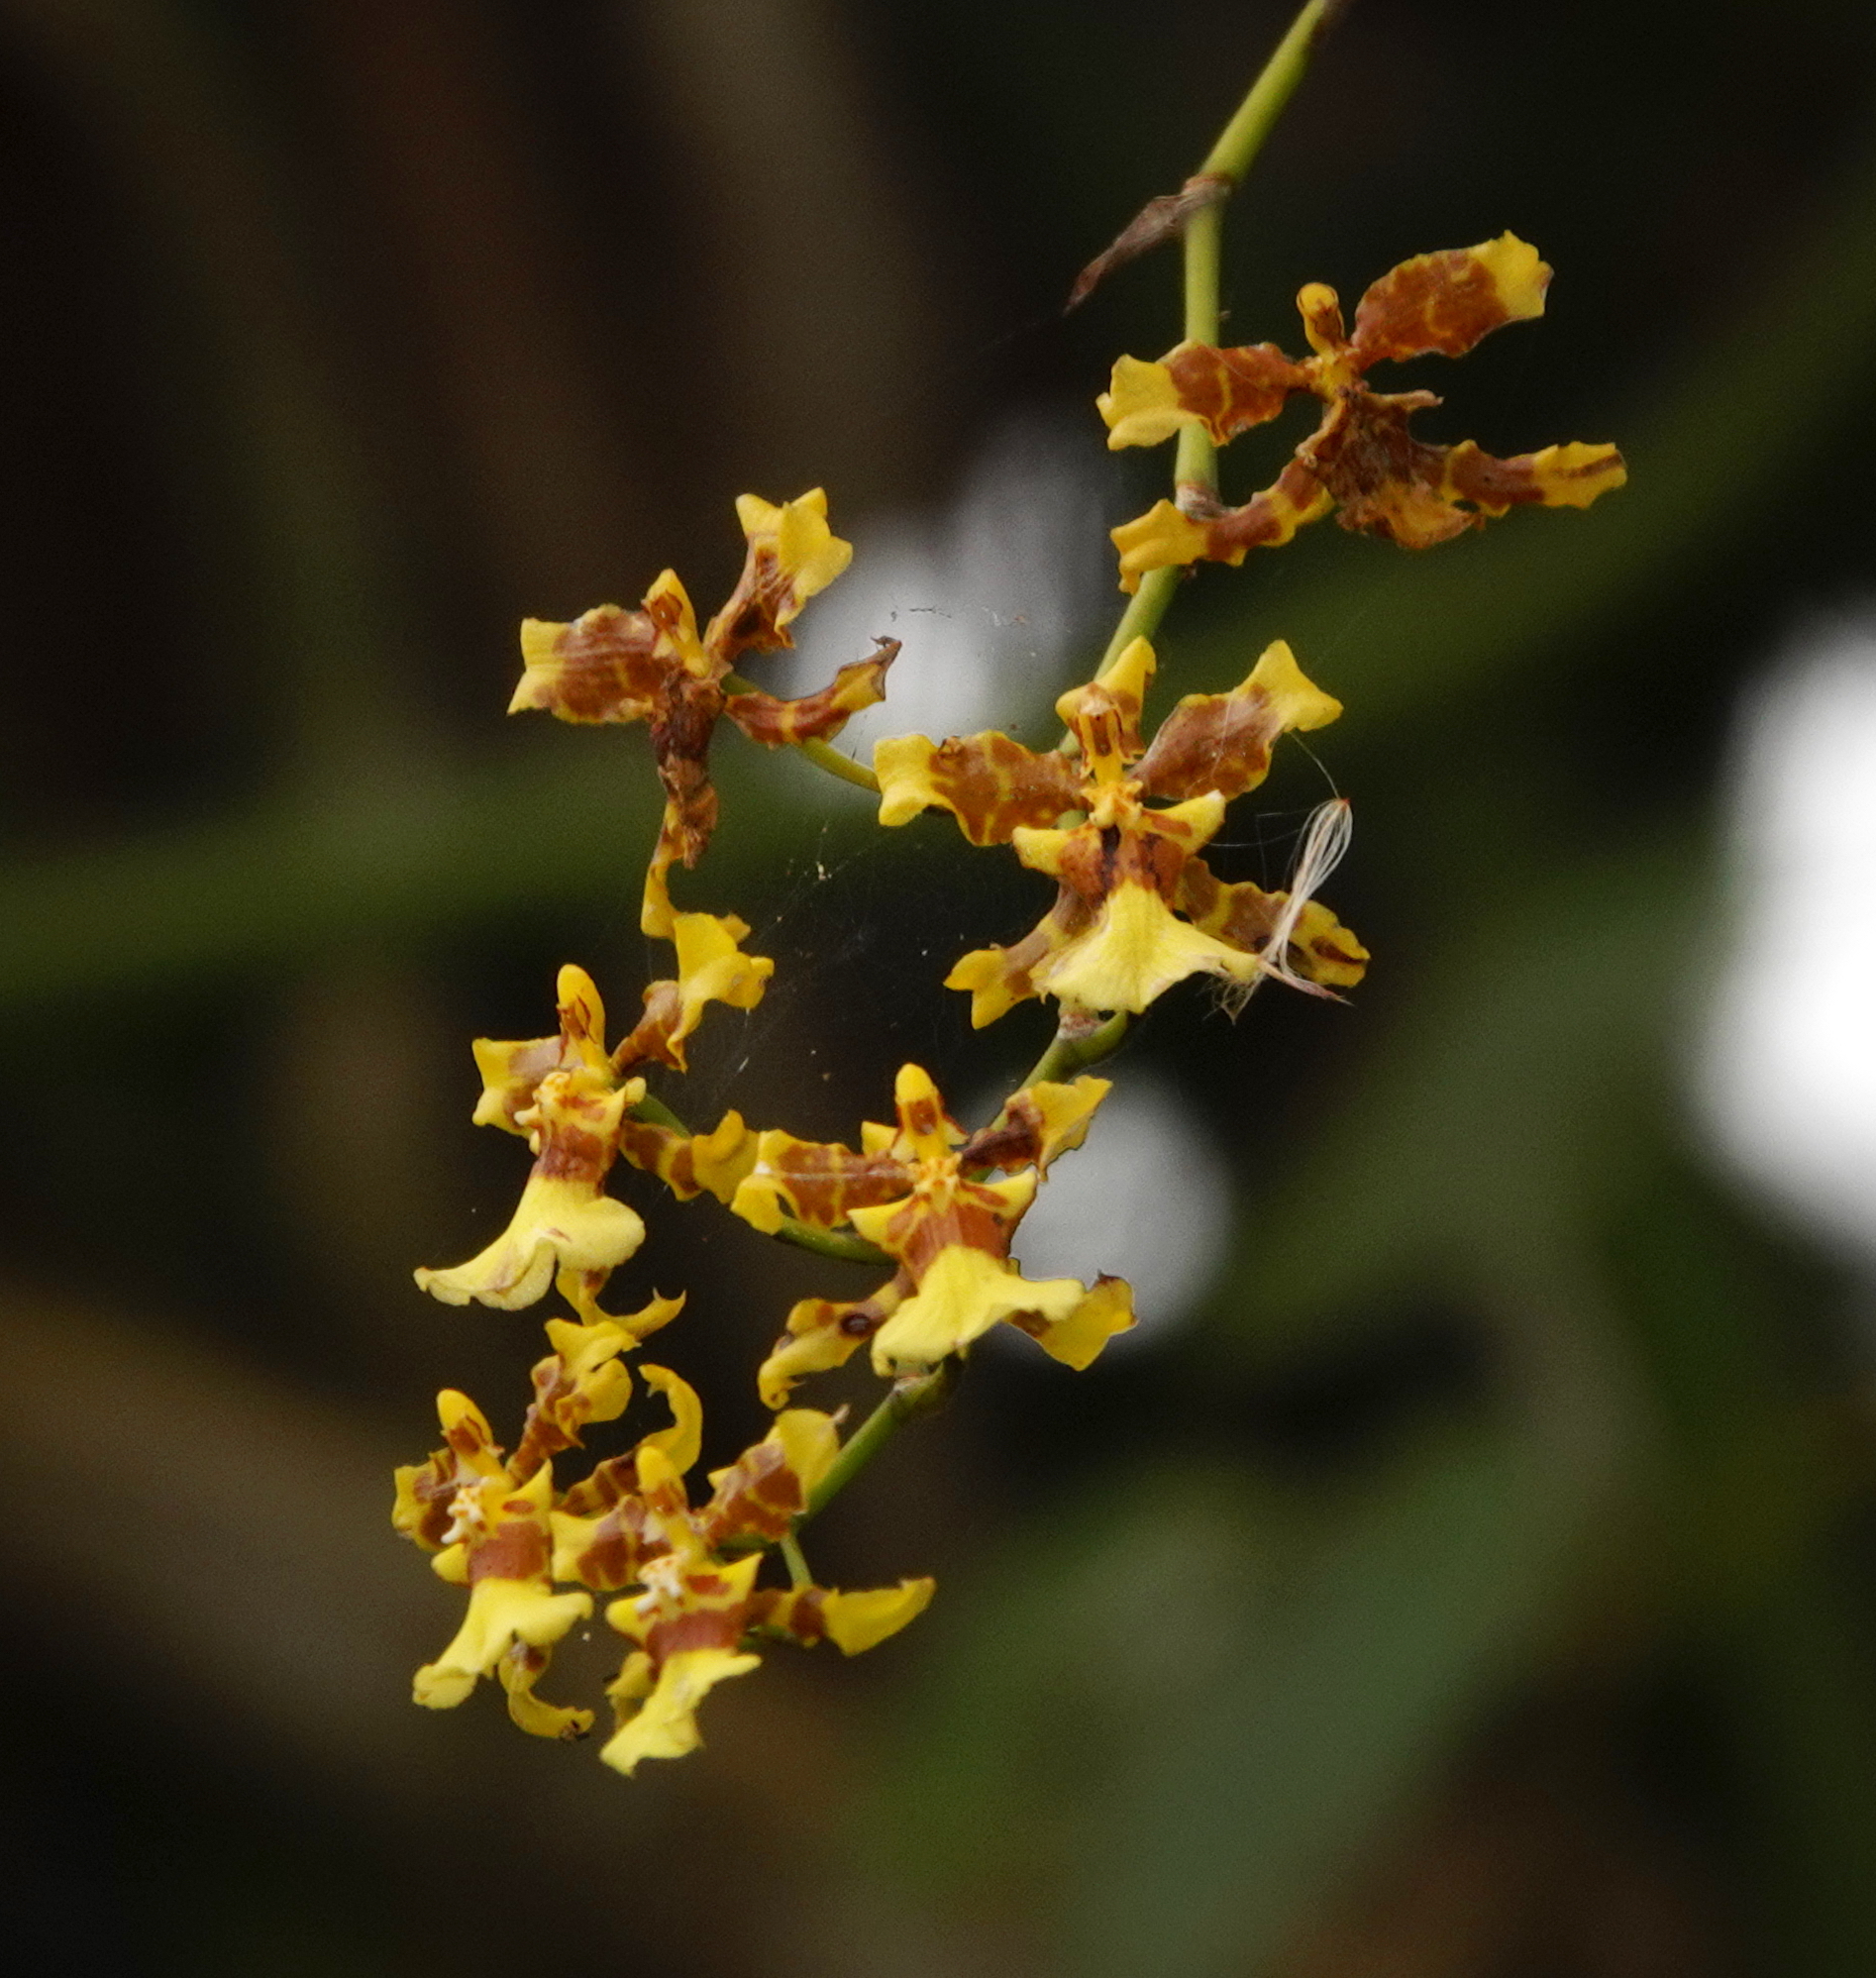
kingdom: Plantae
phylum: Tracheophyta
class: Liliopsida
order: Asparagales
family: Orchidaceae
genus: Oncidium
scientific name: Oncidium sphacelatum
